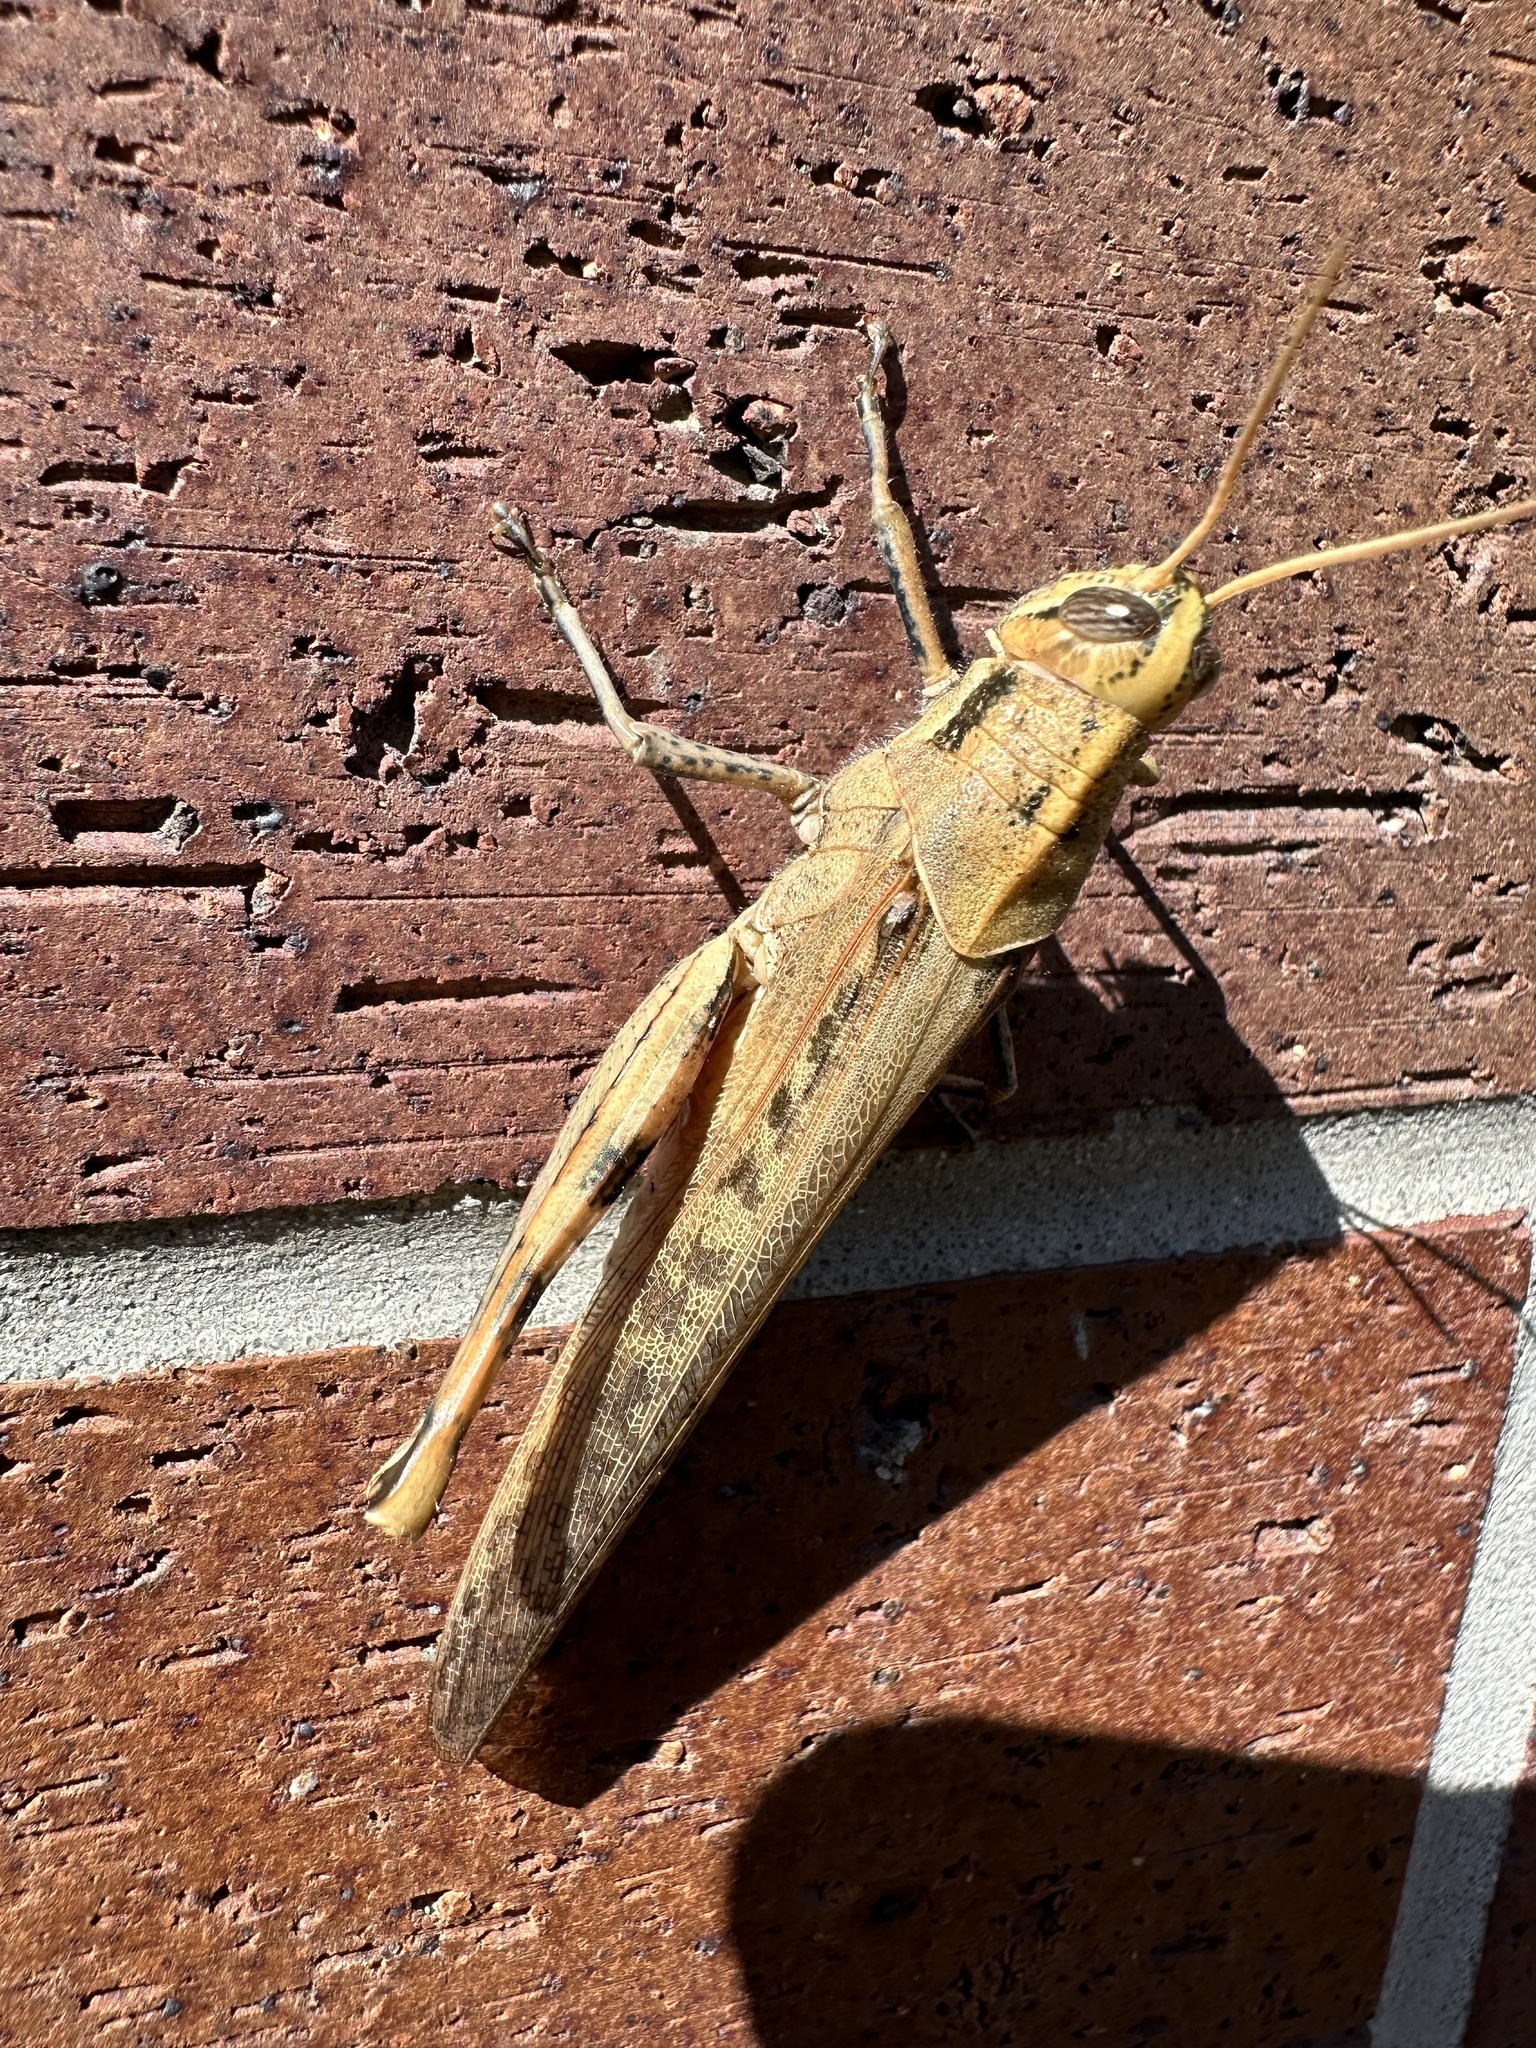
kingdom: Animalia
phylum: Arthropoda
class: Insecta
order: Orthoptera
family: Acrididae
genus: Schistocerca
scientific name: Schistocerca nitens
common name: Vagrant grasshopper
